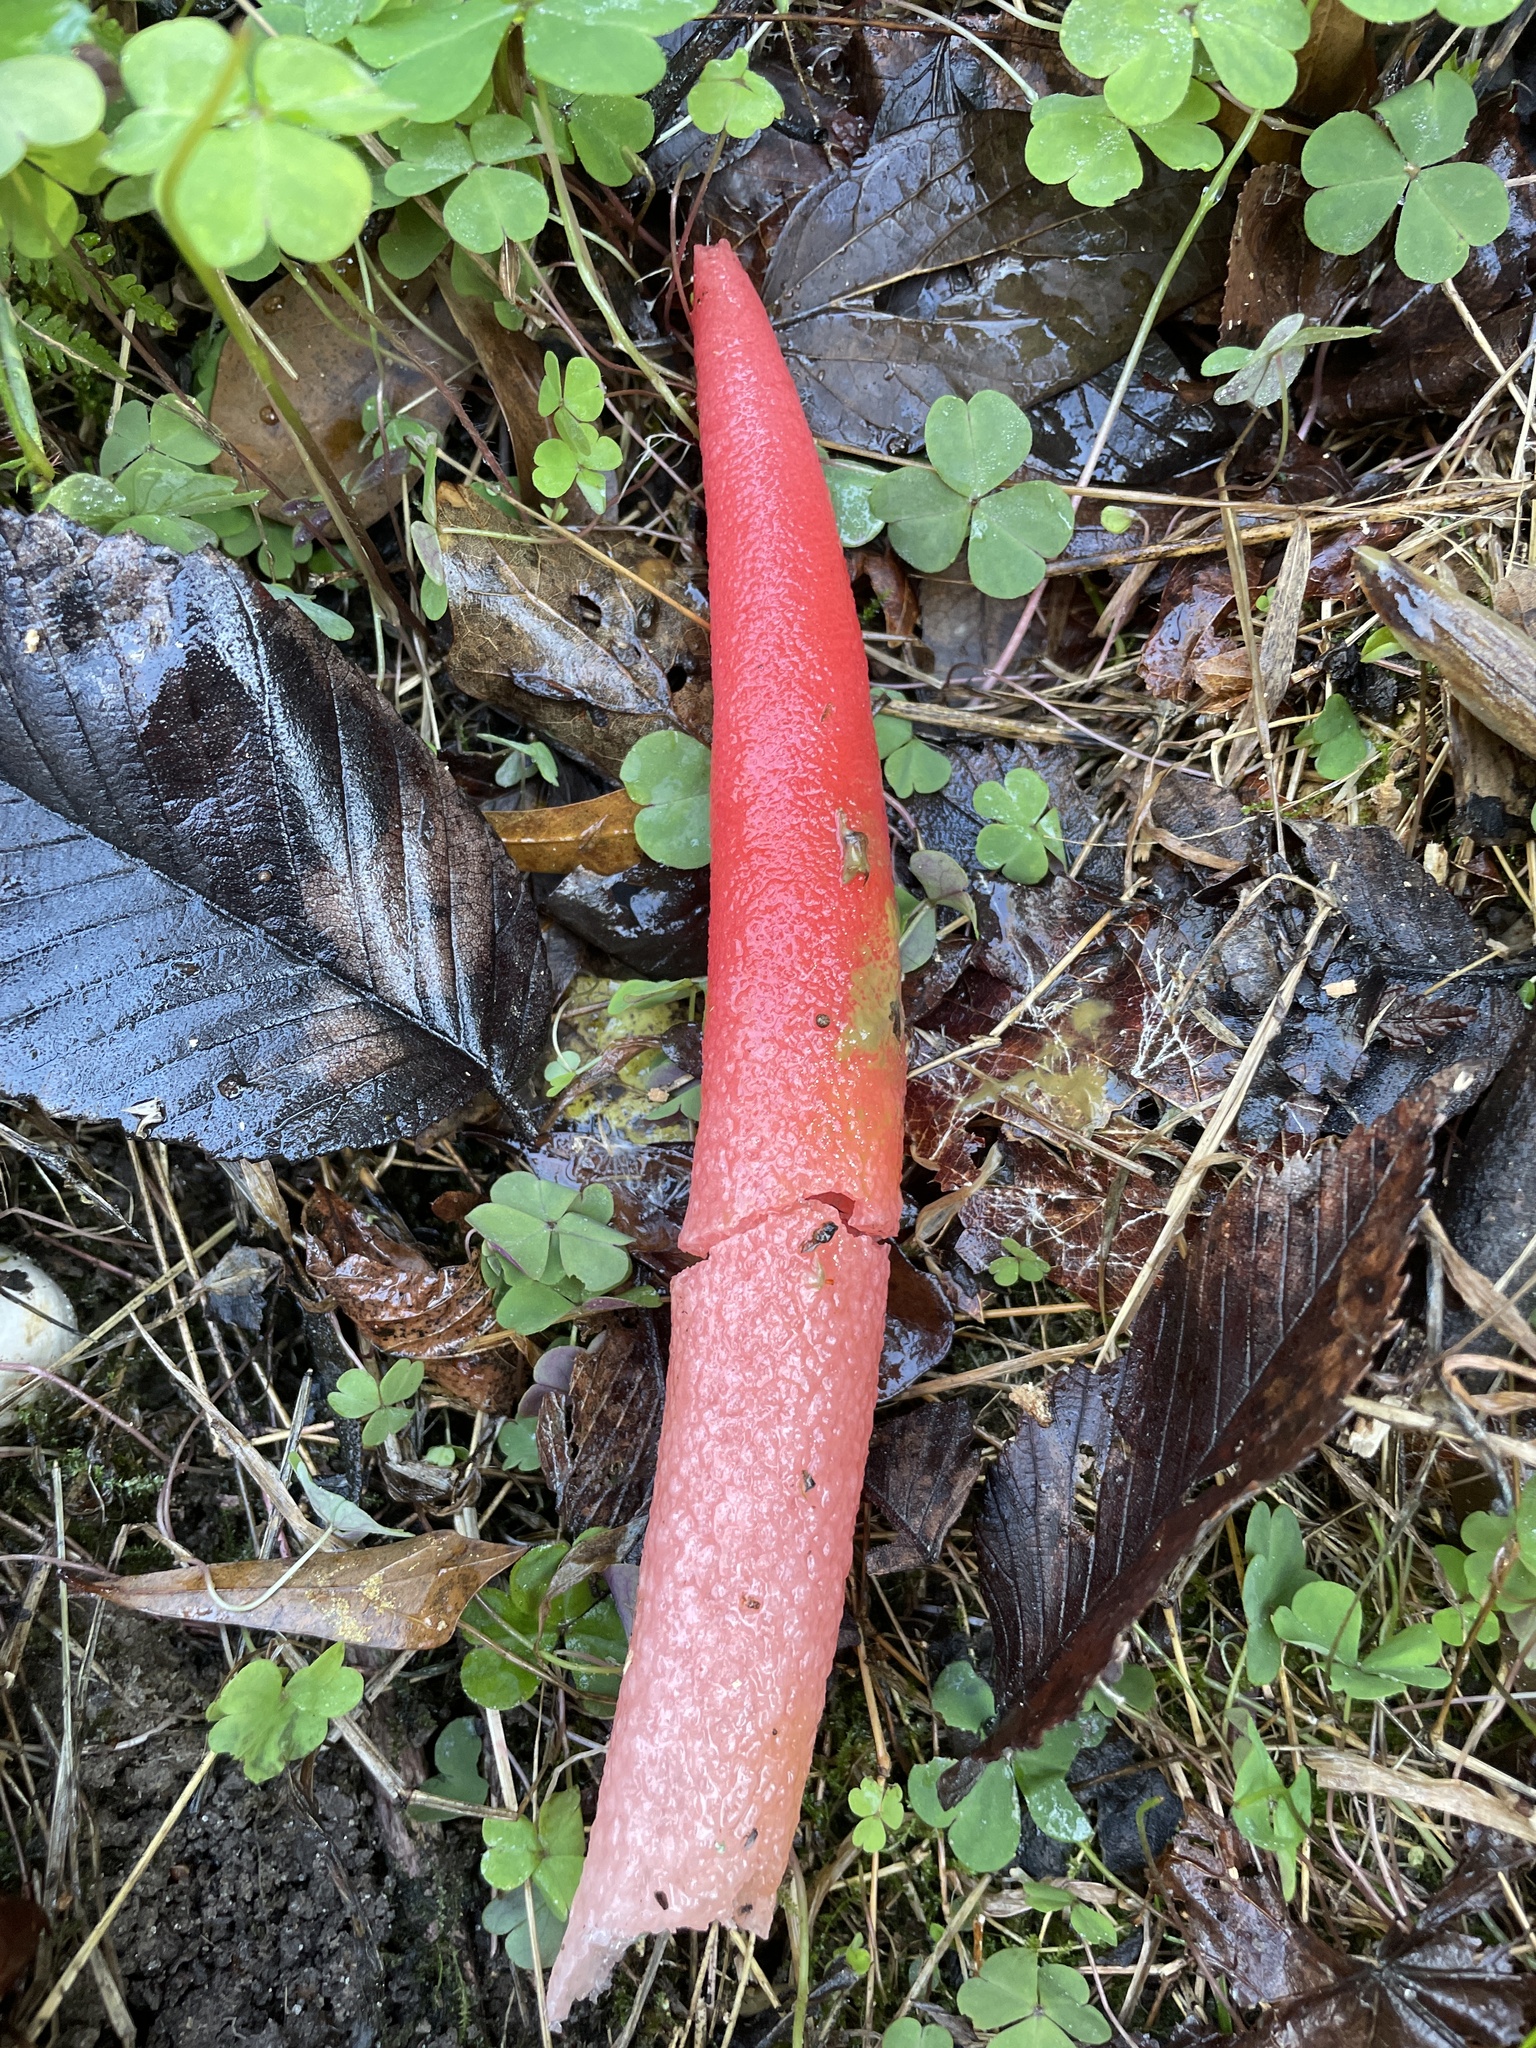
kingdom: Fungi
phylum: Basidiomycota
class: Agaricomycetes
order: Phallales
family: Phallaceae
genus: Mutinus
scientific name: Mutinus elegans
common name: Devil's dipstick
